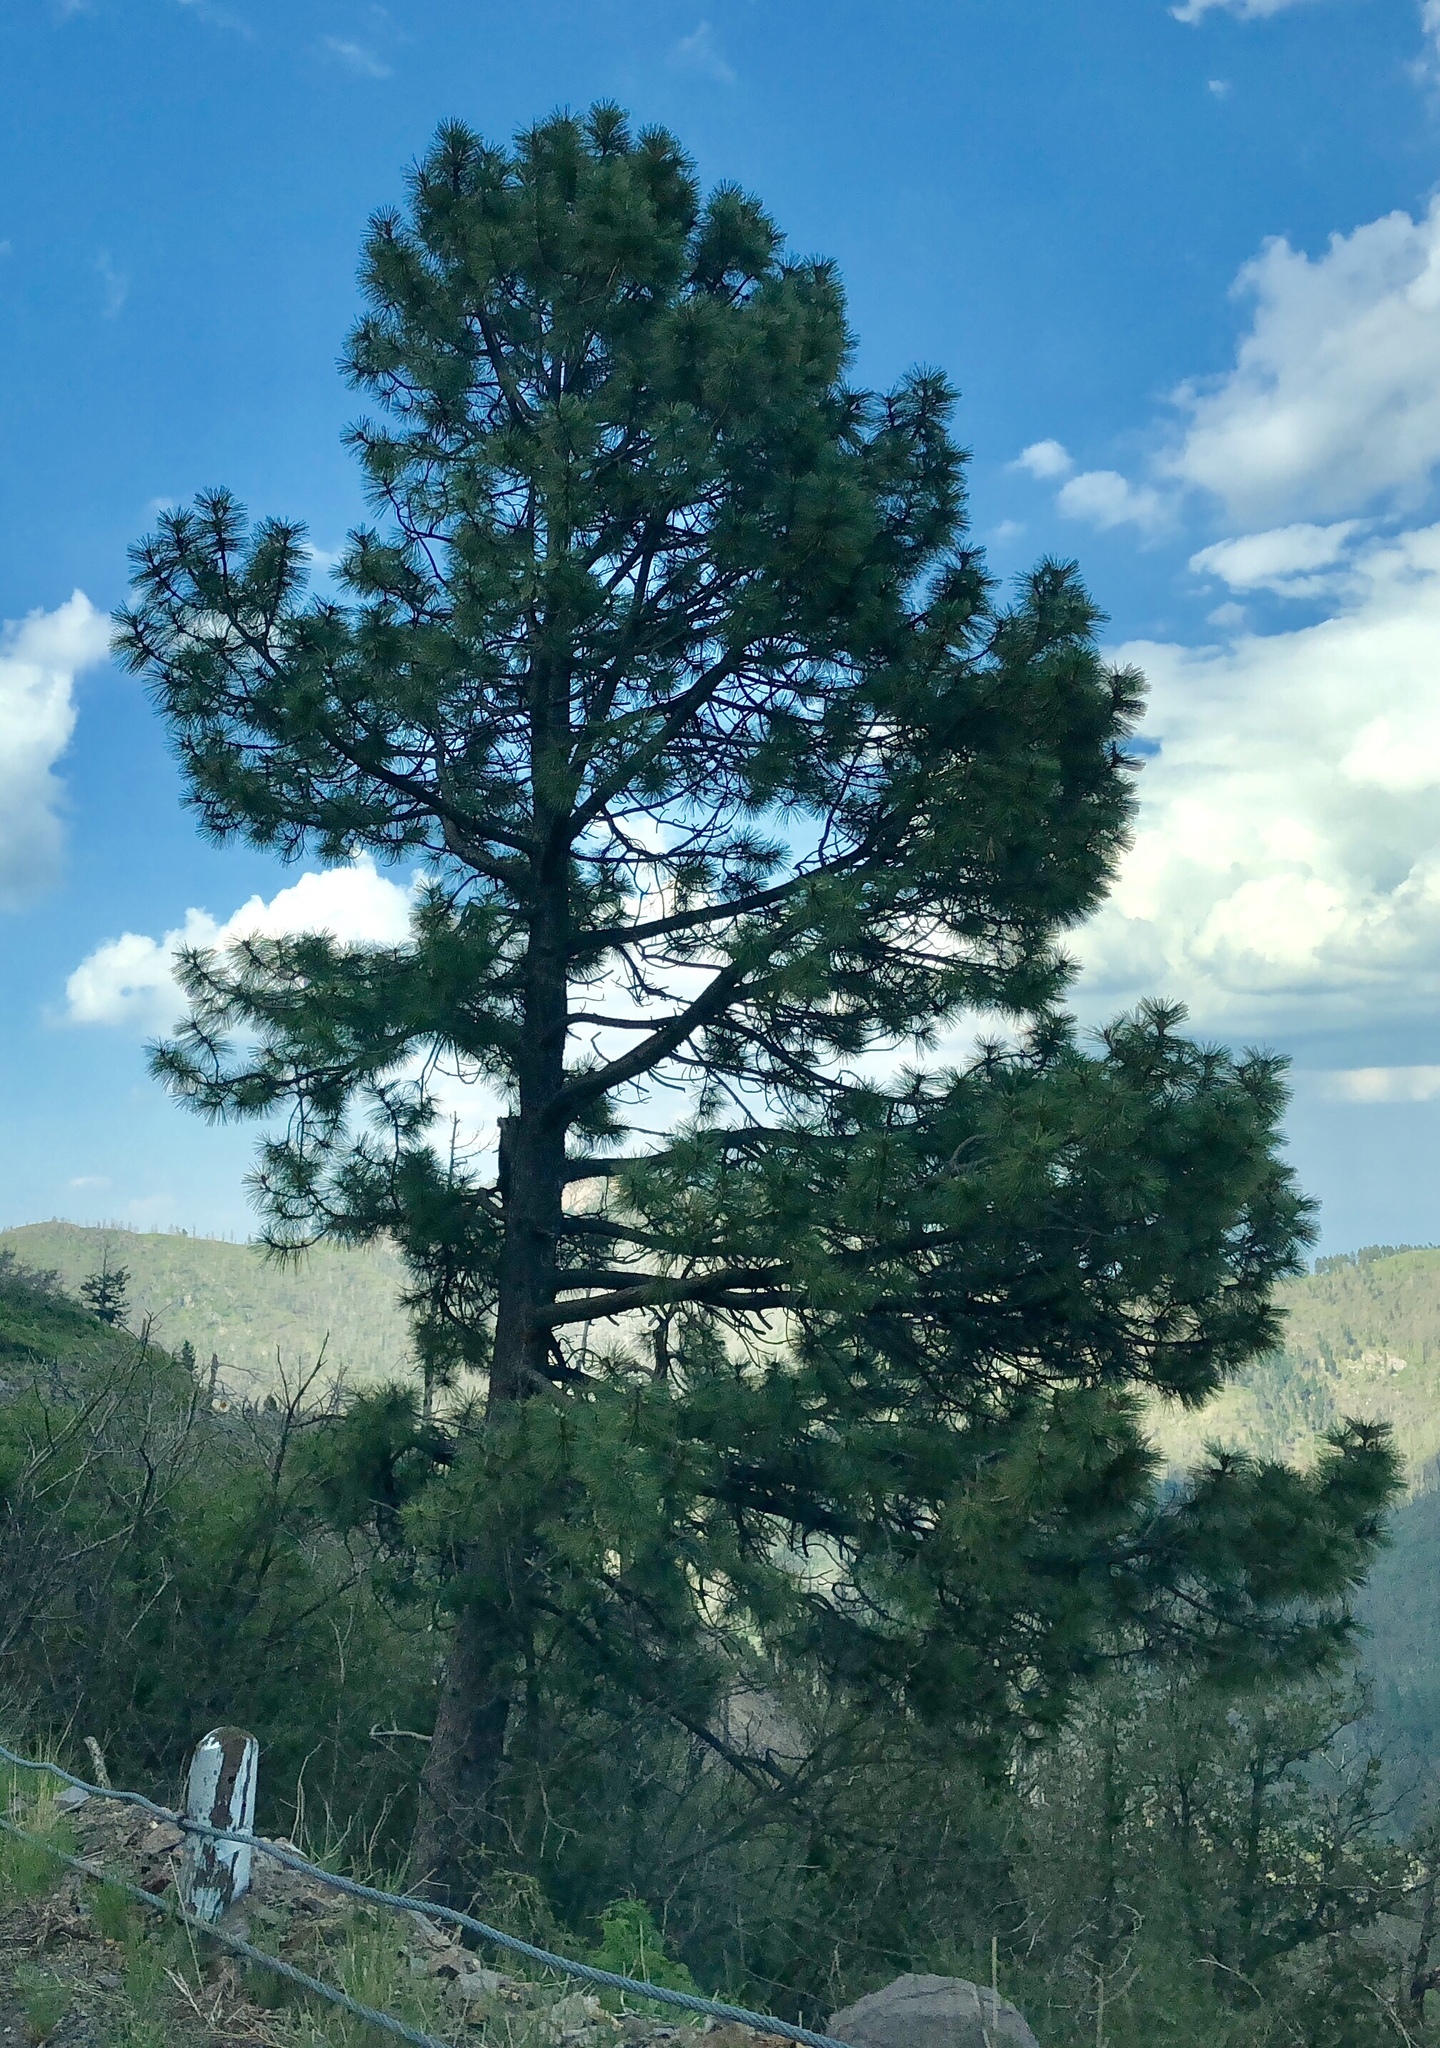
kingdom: Plantae
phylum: Tracheophyta
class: Pinopsida
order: Pinales
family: Pinaceae
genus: Pinus
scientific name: Pinus ponderosa
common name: Western yellow-pine
